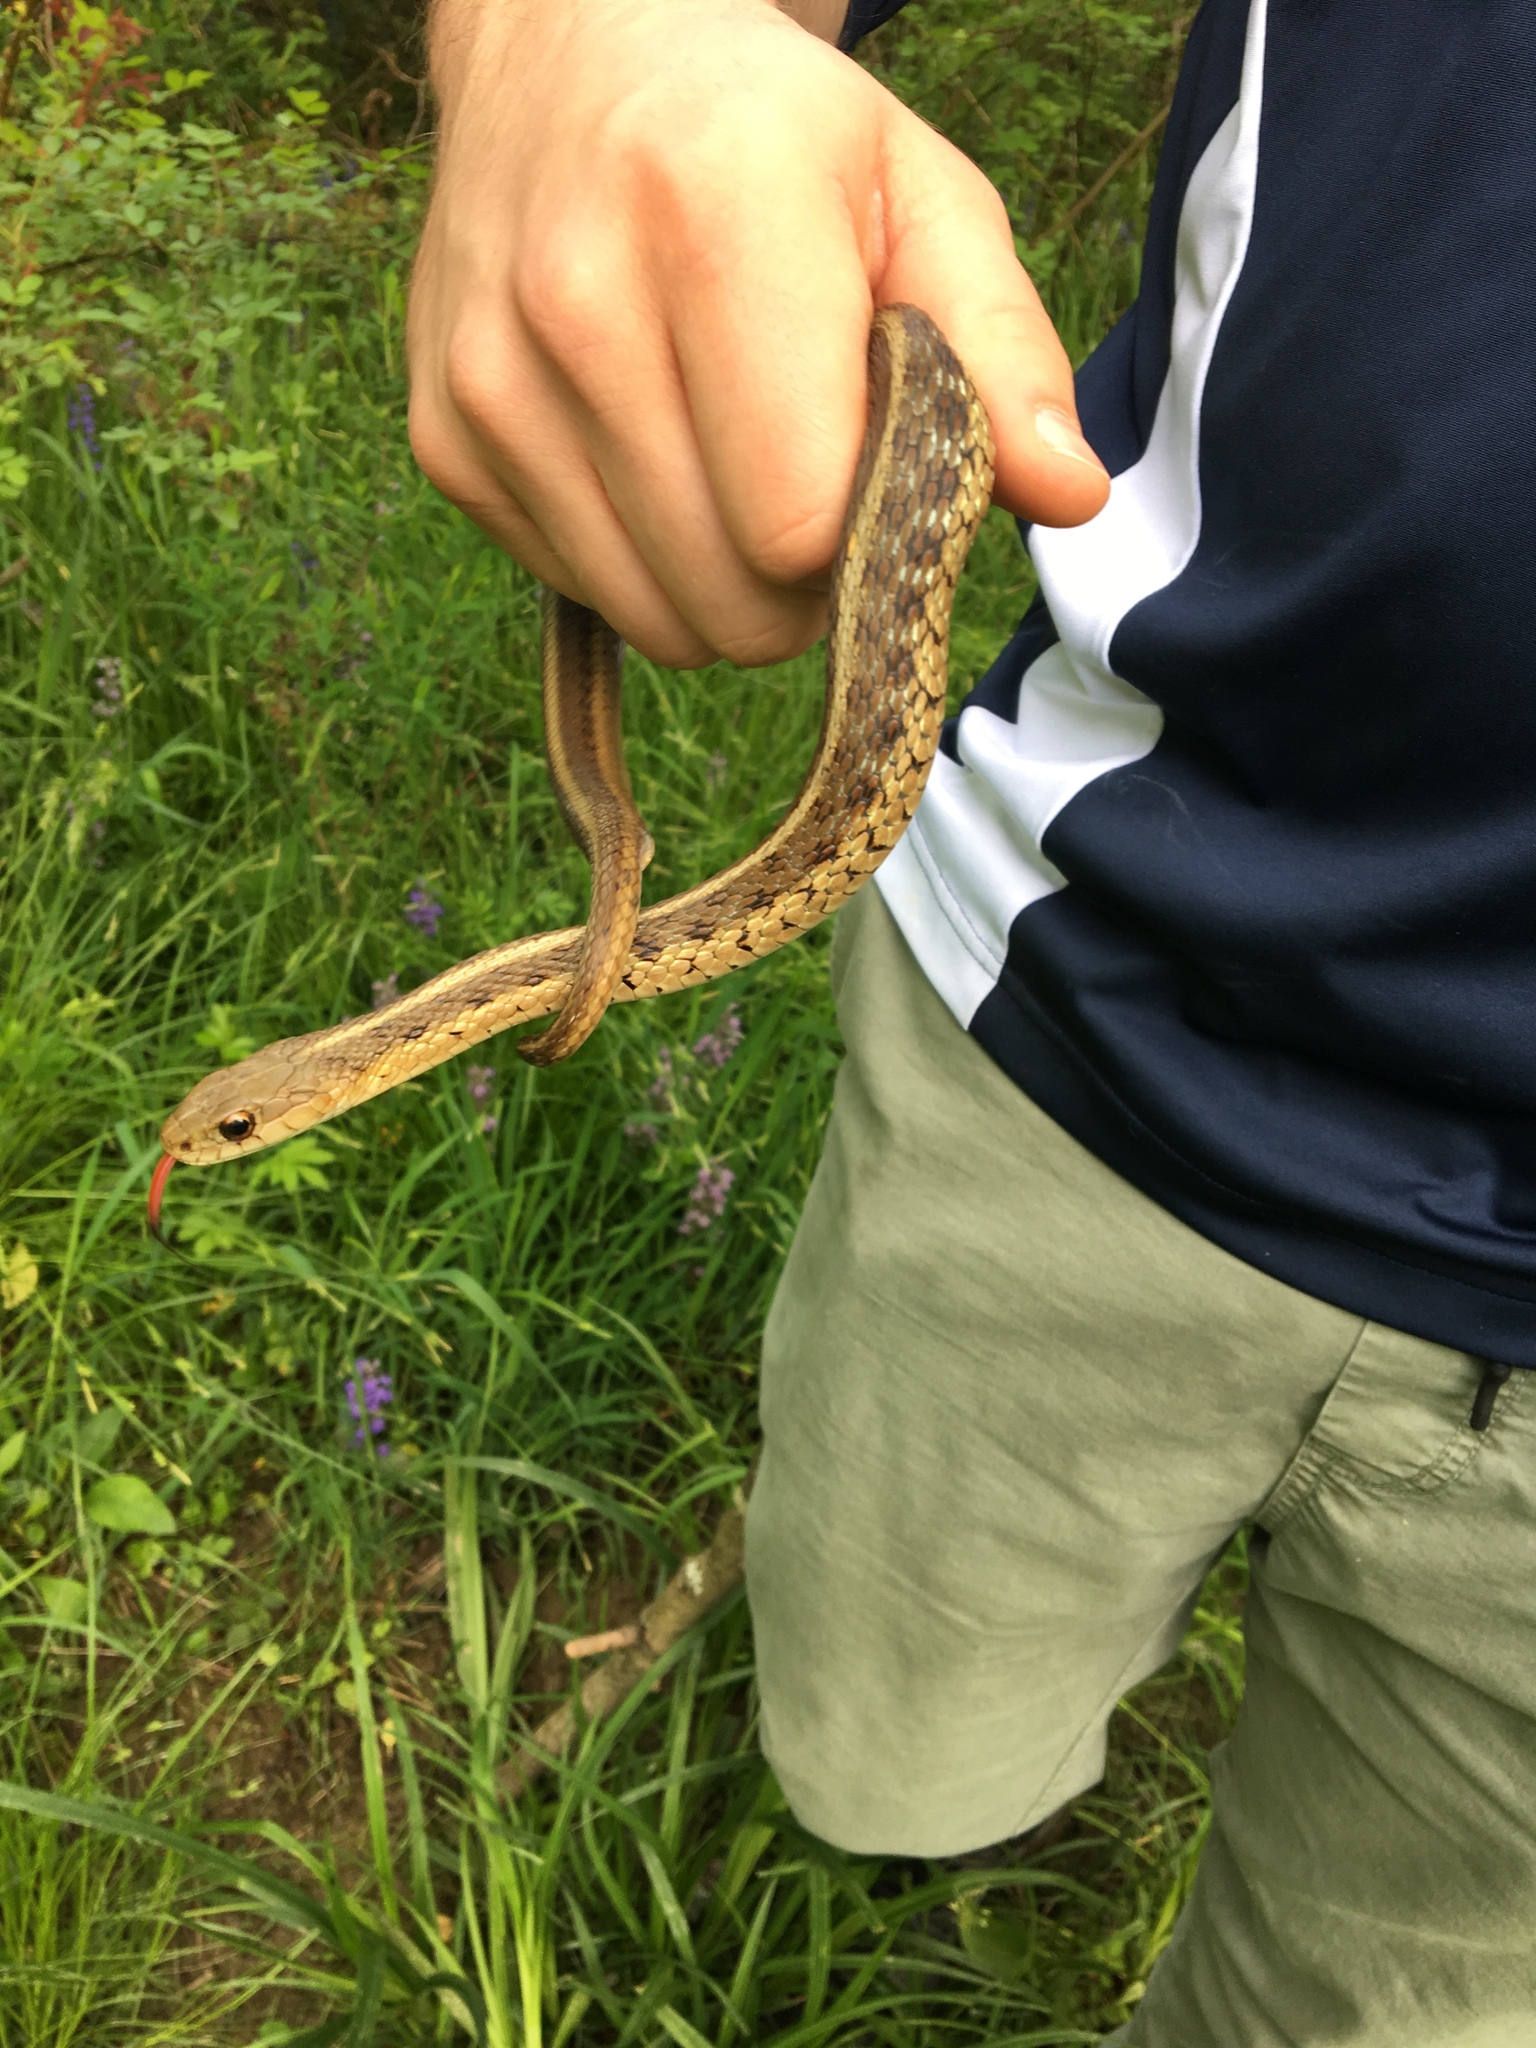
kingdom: Animalia
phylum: Chordata
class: Squamata
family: Colubridae
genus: Thamnophis
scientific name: Thamnophis sirtalis
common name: Common garter snake
